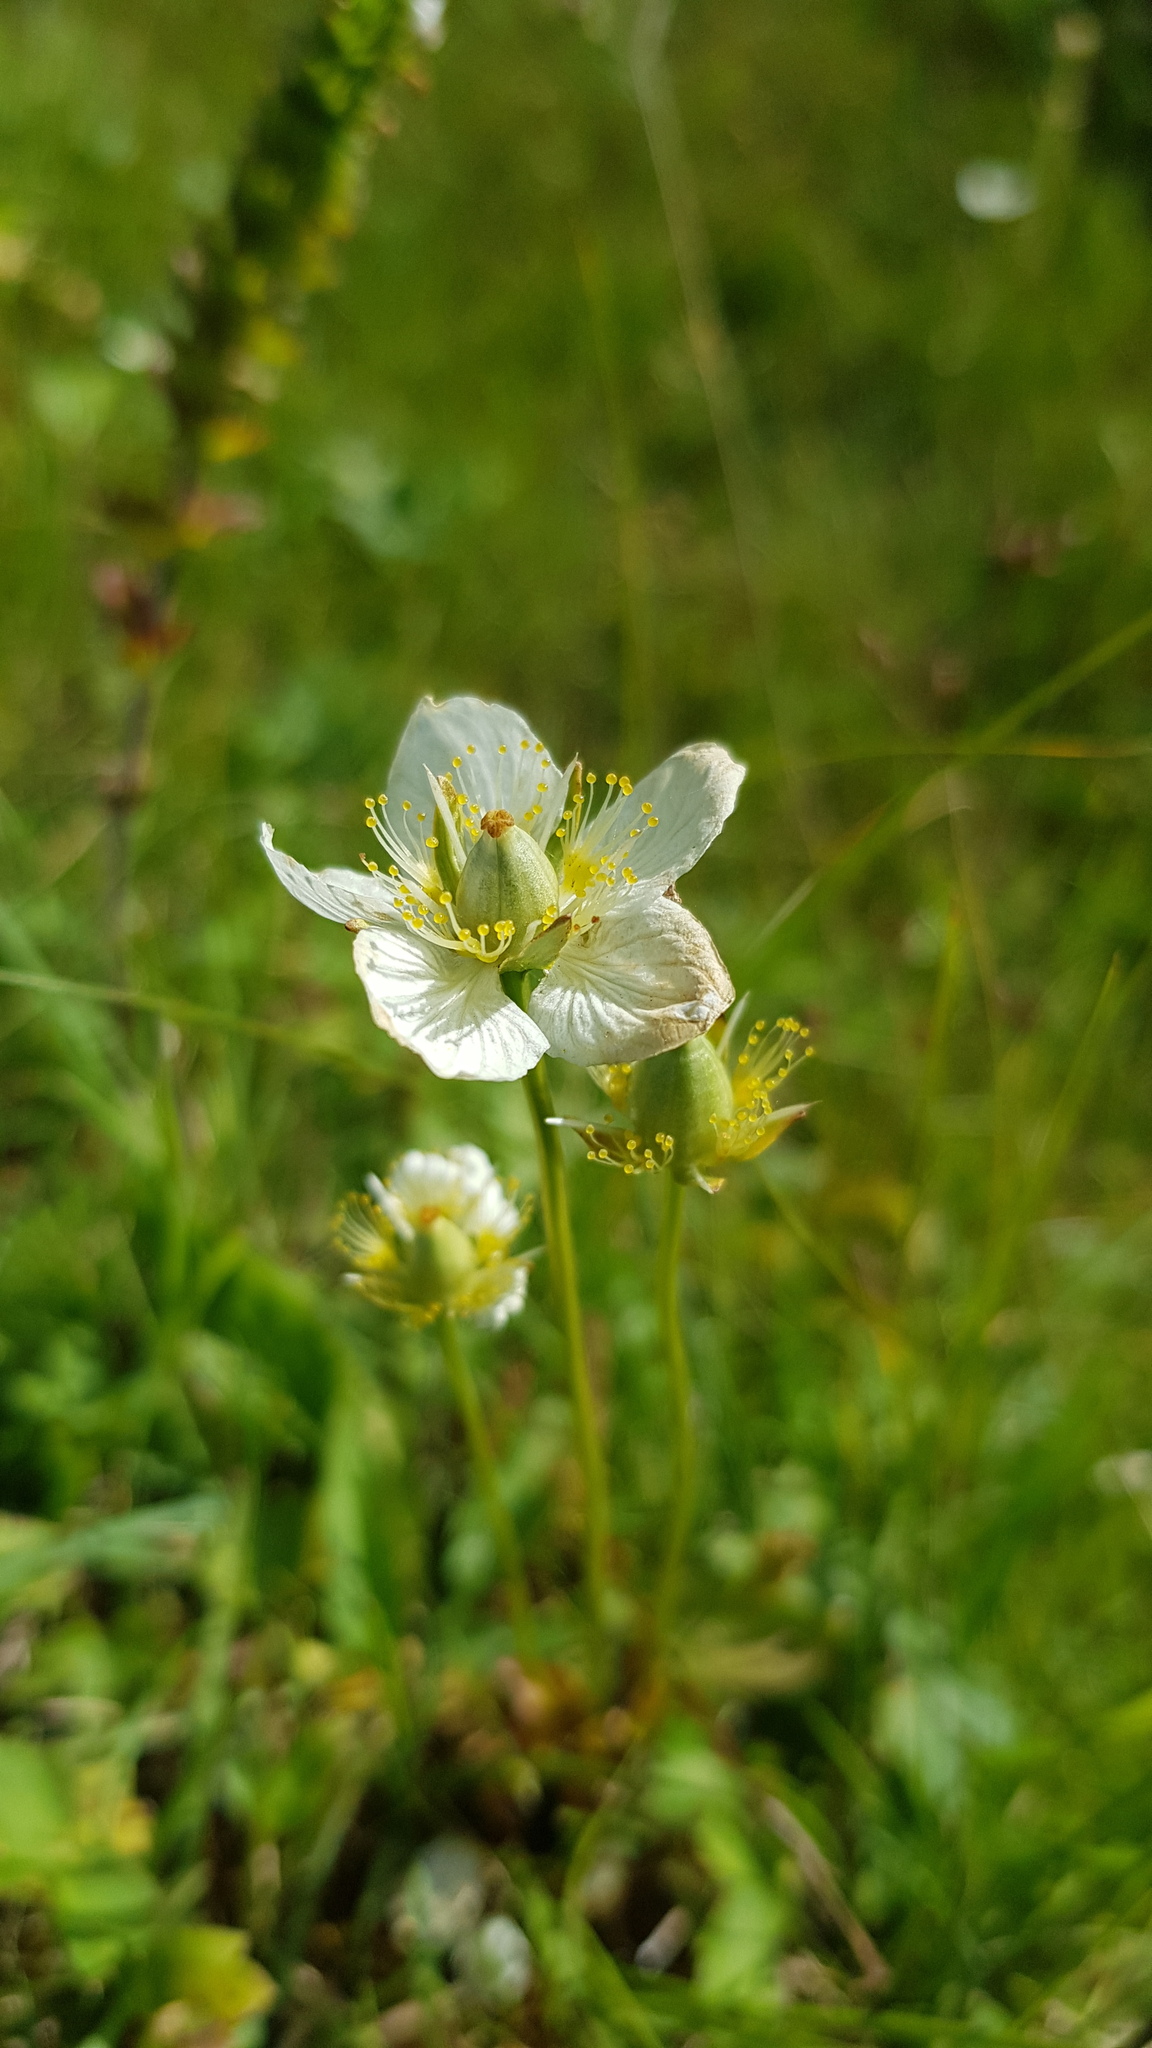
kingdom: Plantae
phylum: Tracheophyta
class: Magnoliopsida
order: Celastrales
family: Parnassiaceae
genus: Parnassia
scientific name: Parnassia palustris
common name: Grass-of-parnassus
